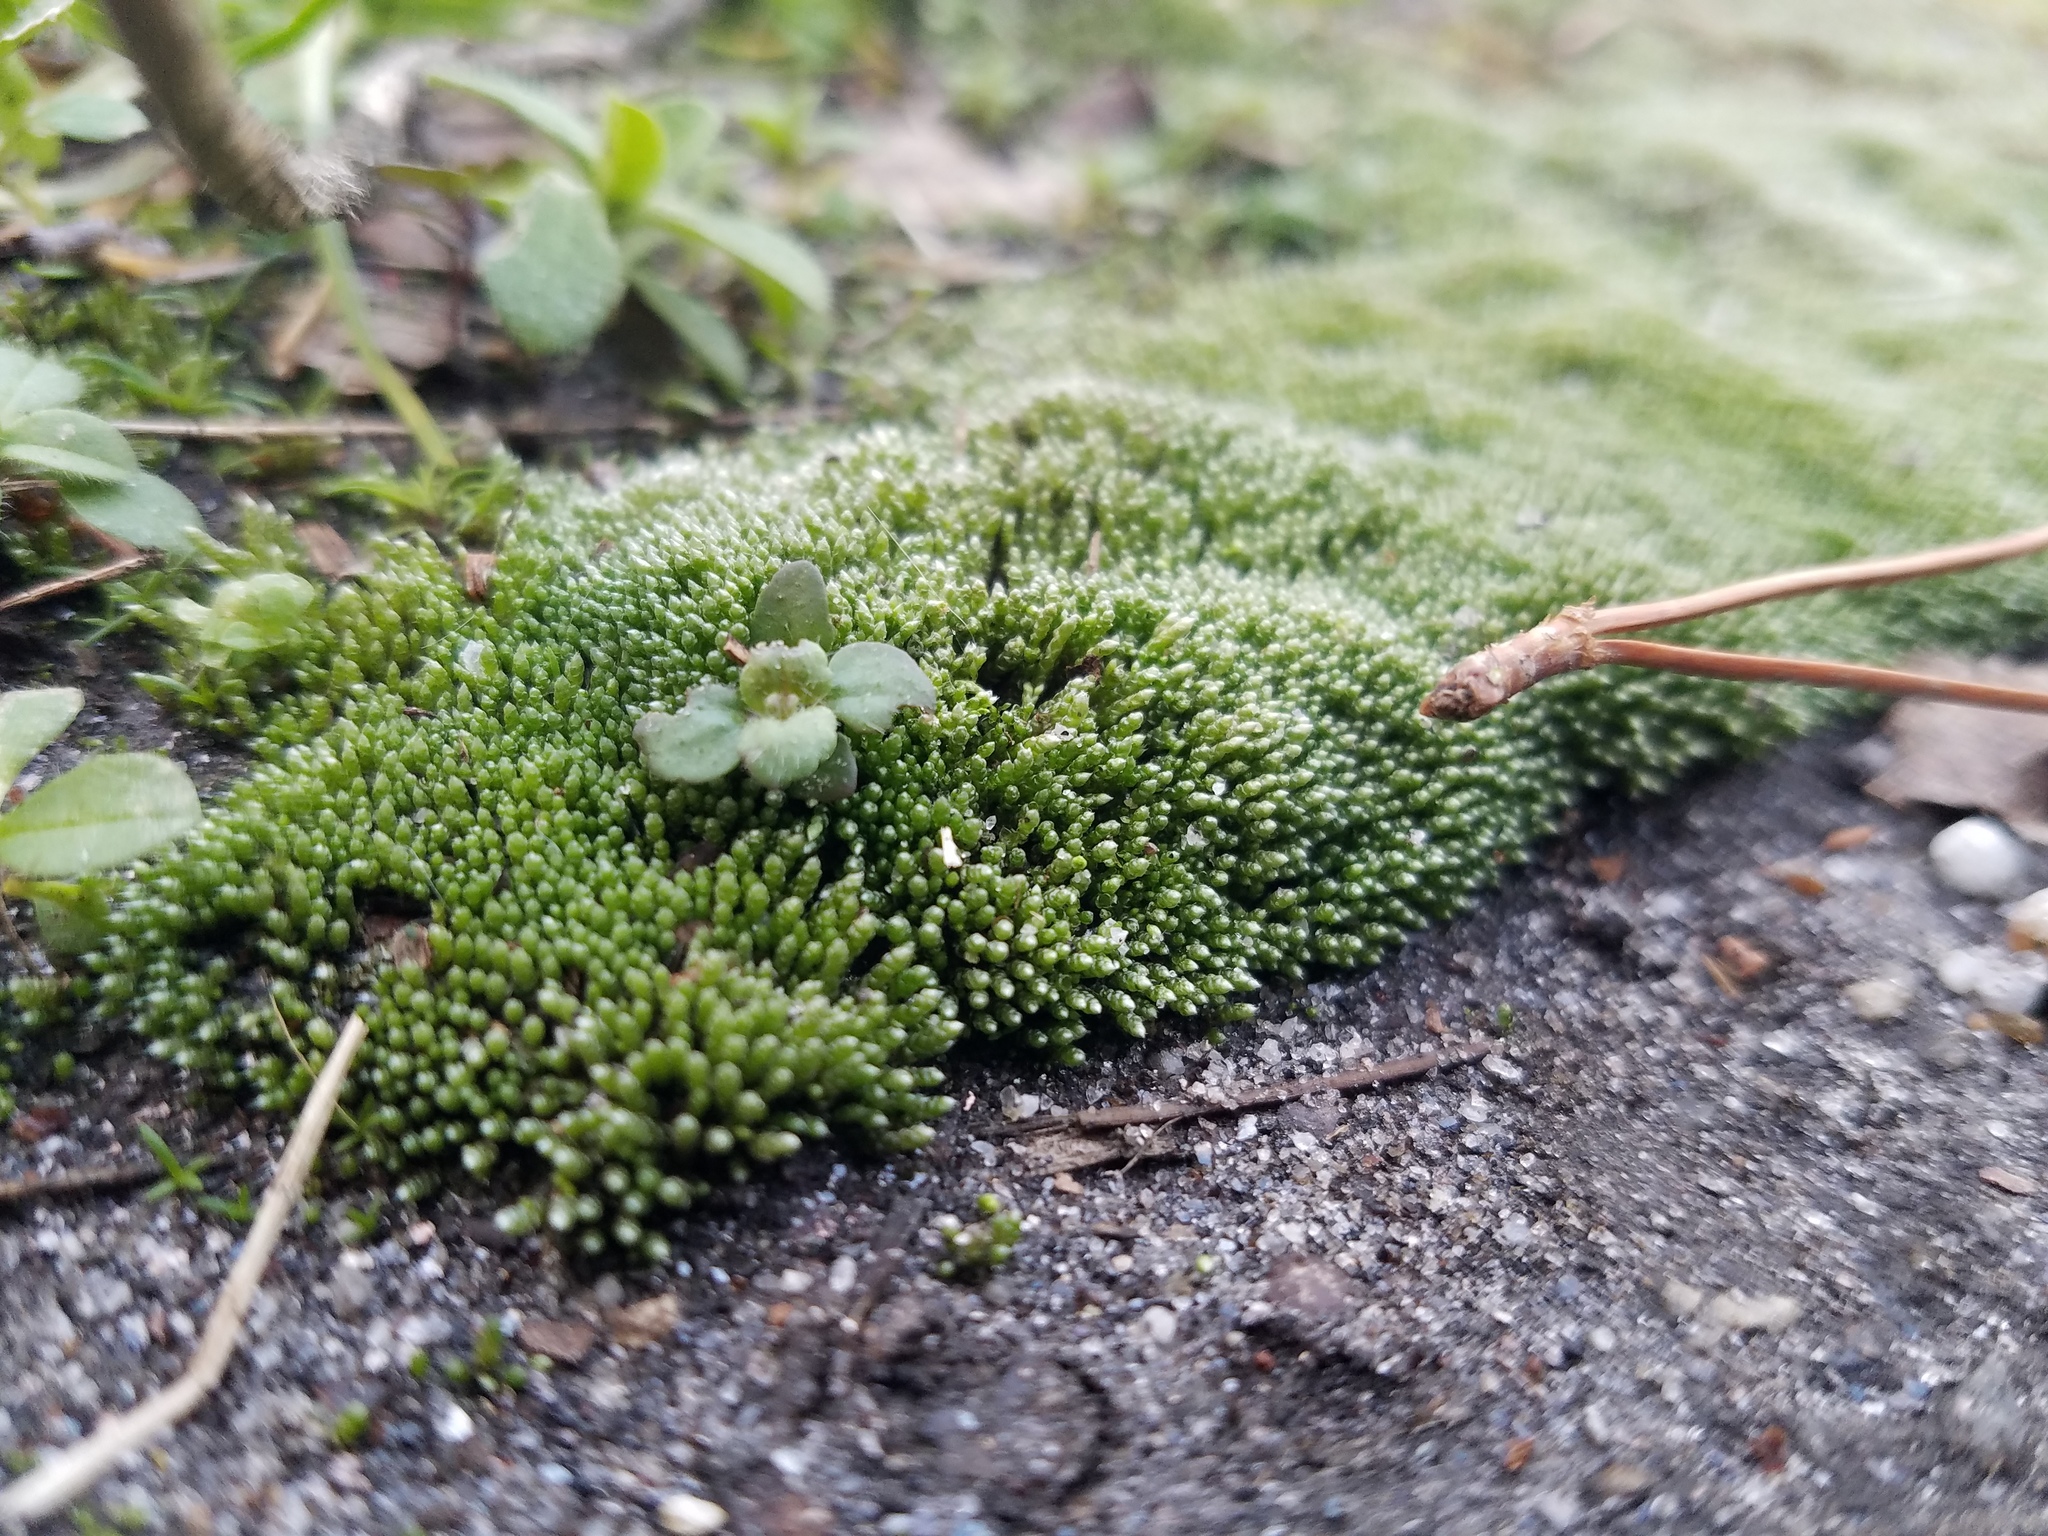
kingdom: Plantae
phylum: Bryophyta
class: Bryopsida
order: Bryales
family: Bryaceae
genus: Bryum
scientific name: Bryum argenteum
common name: Silver-moss
